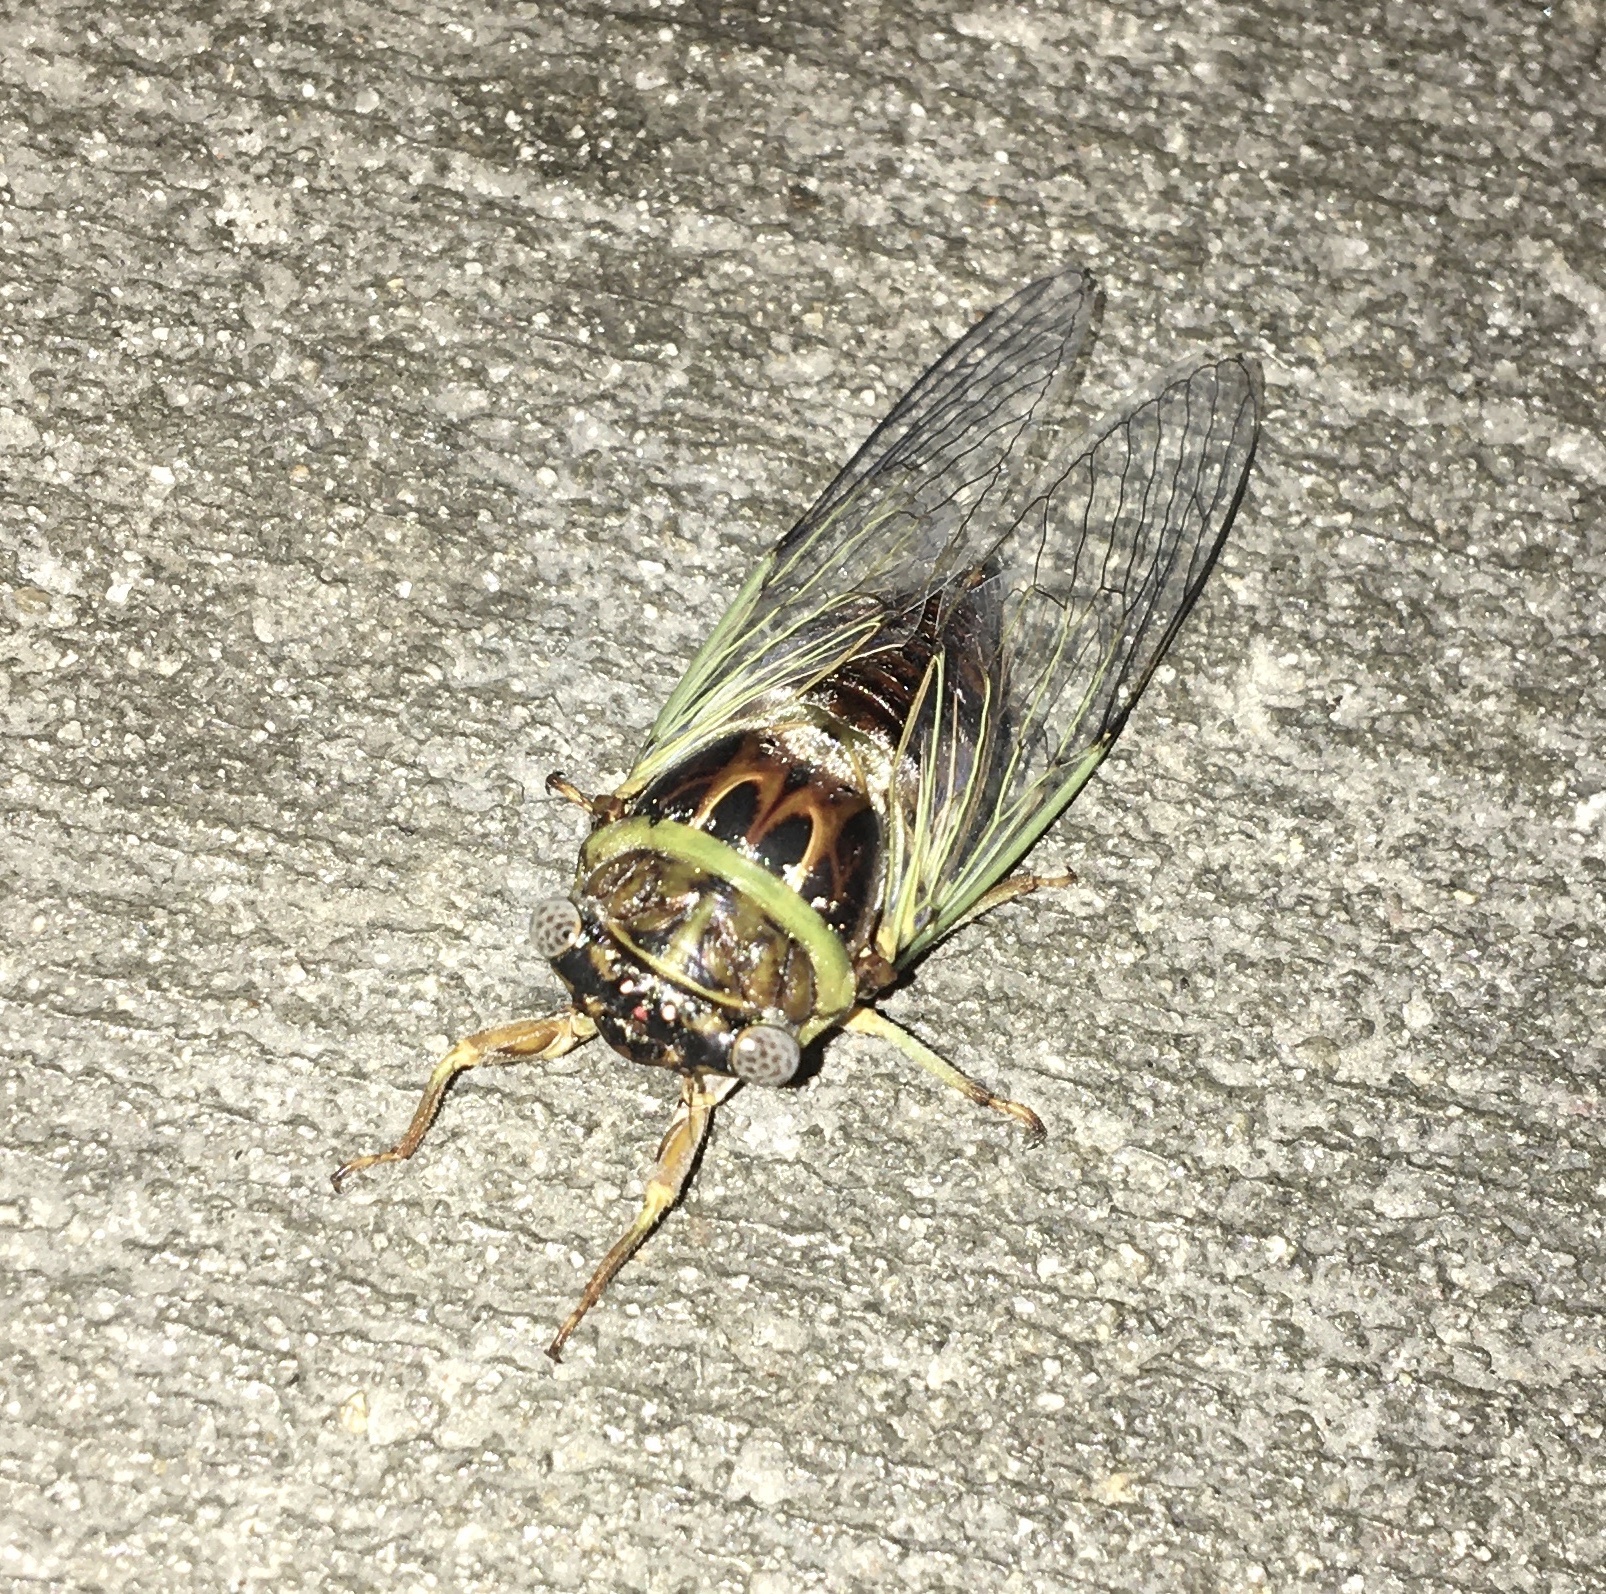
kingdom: Animalia
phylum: Arthropoda
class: Insecta
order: Hemiptera
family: Cicadidae
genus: Diceroprocta
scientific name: Diceroprocta viridifascia
